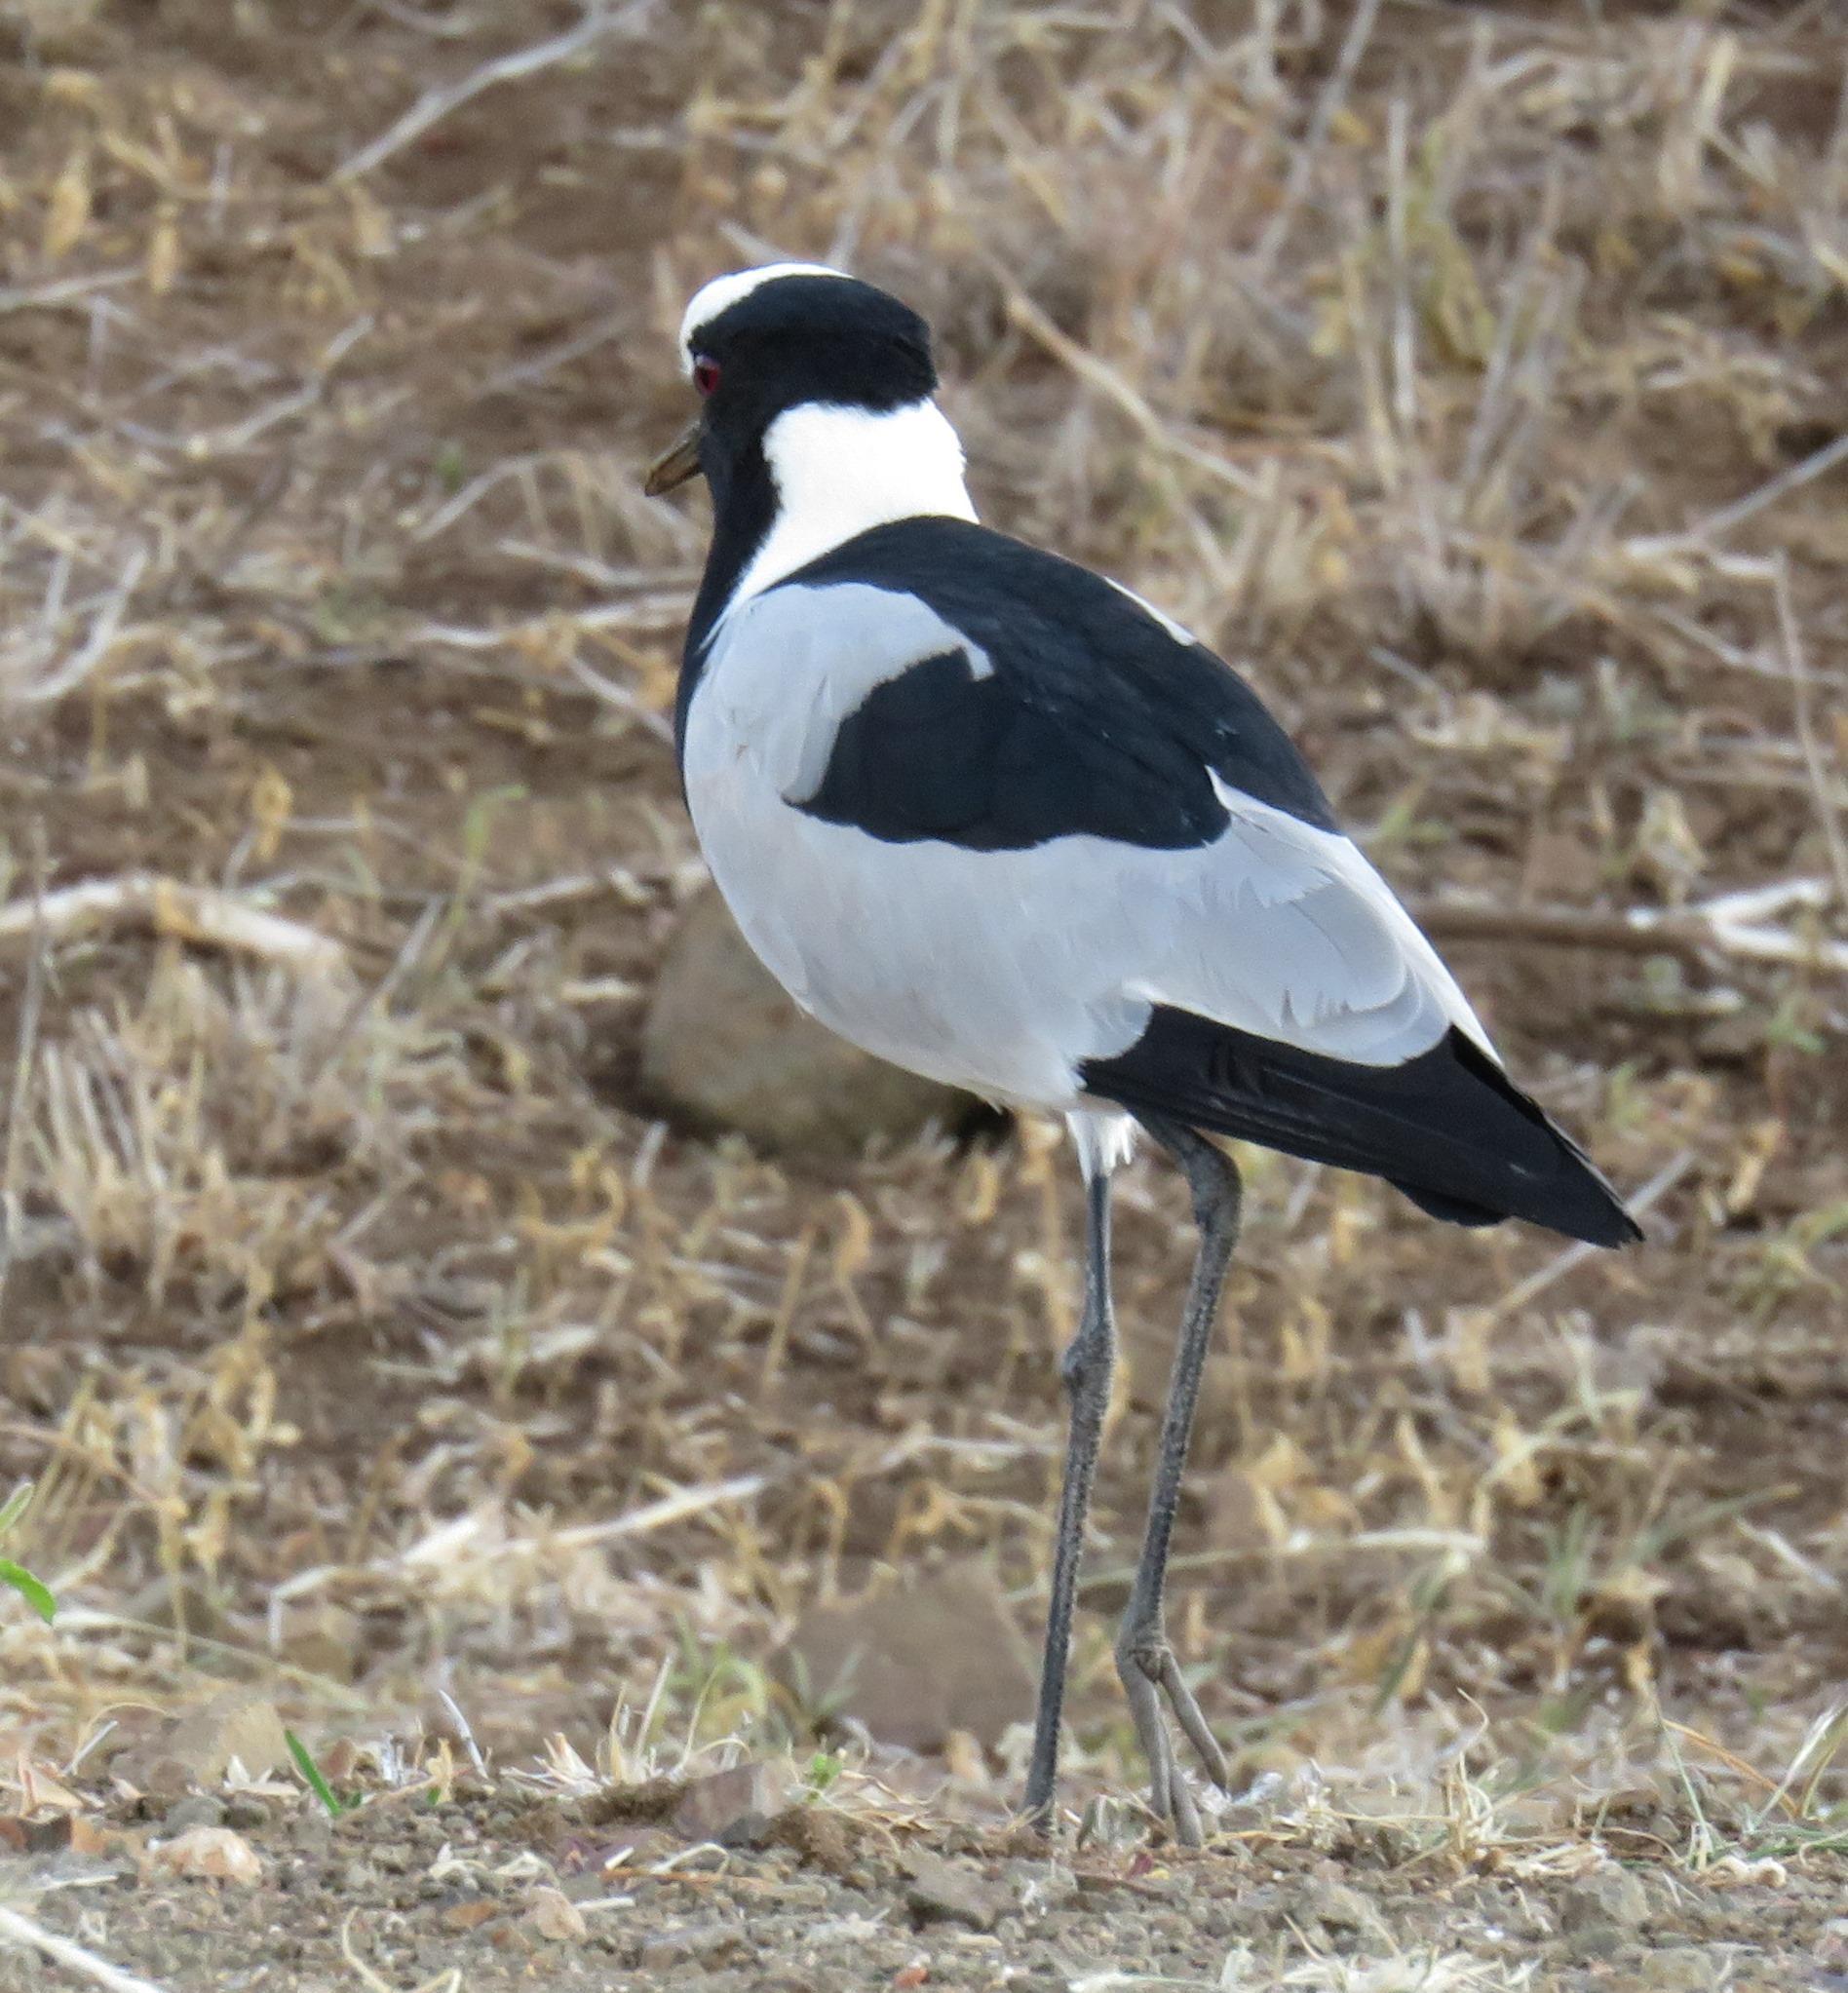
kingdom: Animalia
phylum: Chordata
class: Aves
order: Charadriiformes
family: Charadriidae
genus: Vanellus
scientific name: Vanellus armatus
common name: Blacksmith lapwing
